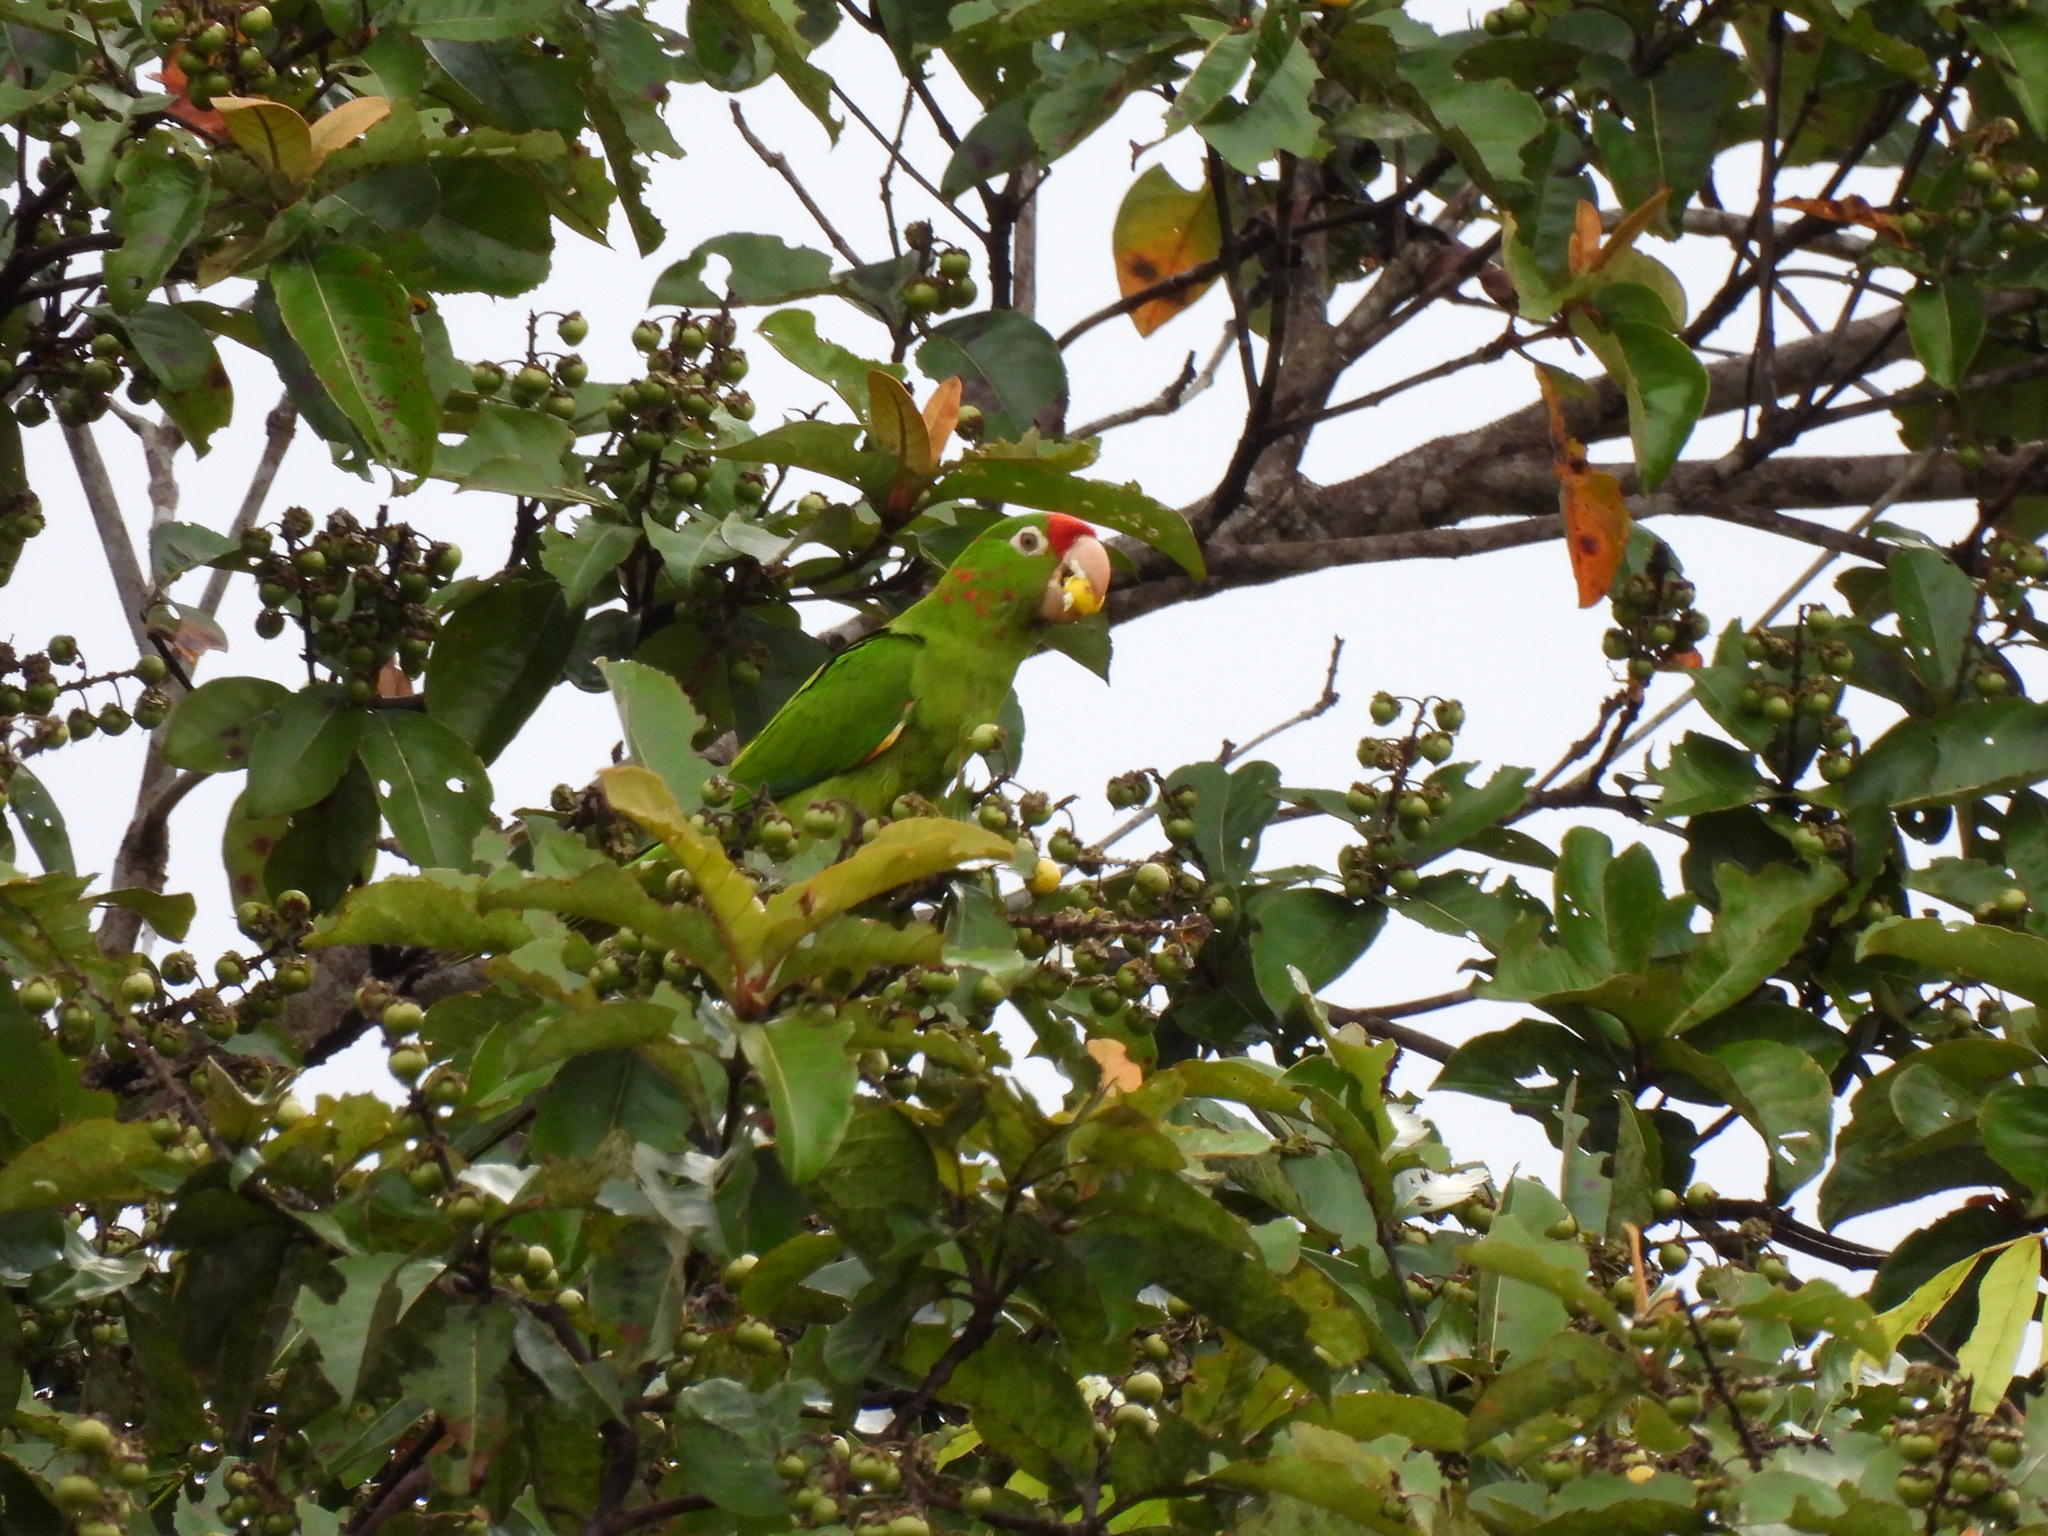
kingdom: Animalia
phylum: Chordata
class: Aves
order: Psittaciformes
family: Psittacidae
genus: Aratinga
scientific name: Aratinga finschi
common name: Crimson-fronted parakeet
